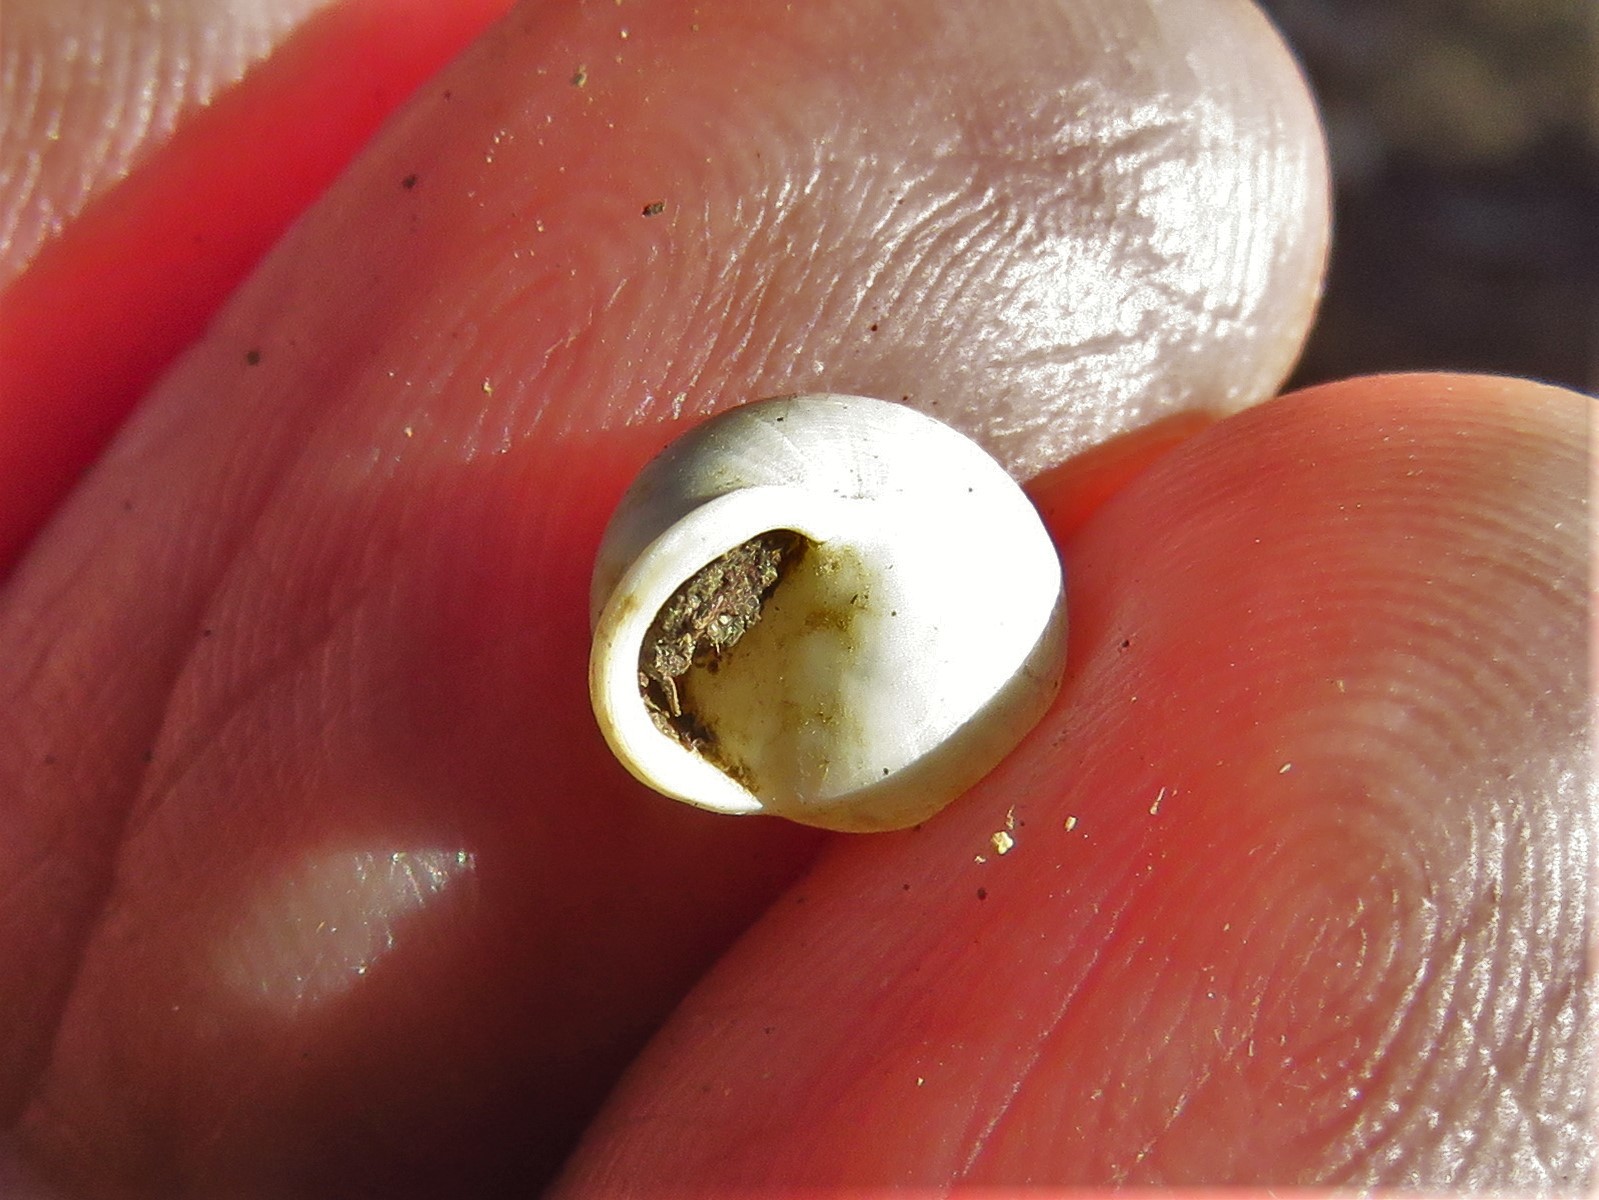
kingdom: Animalia
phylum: Mollusca
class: Gastropoda
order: Cycloneritida
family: Helicinidae
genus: Helicina
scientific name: Helicina orbiculata
